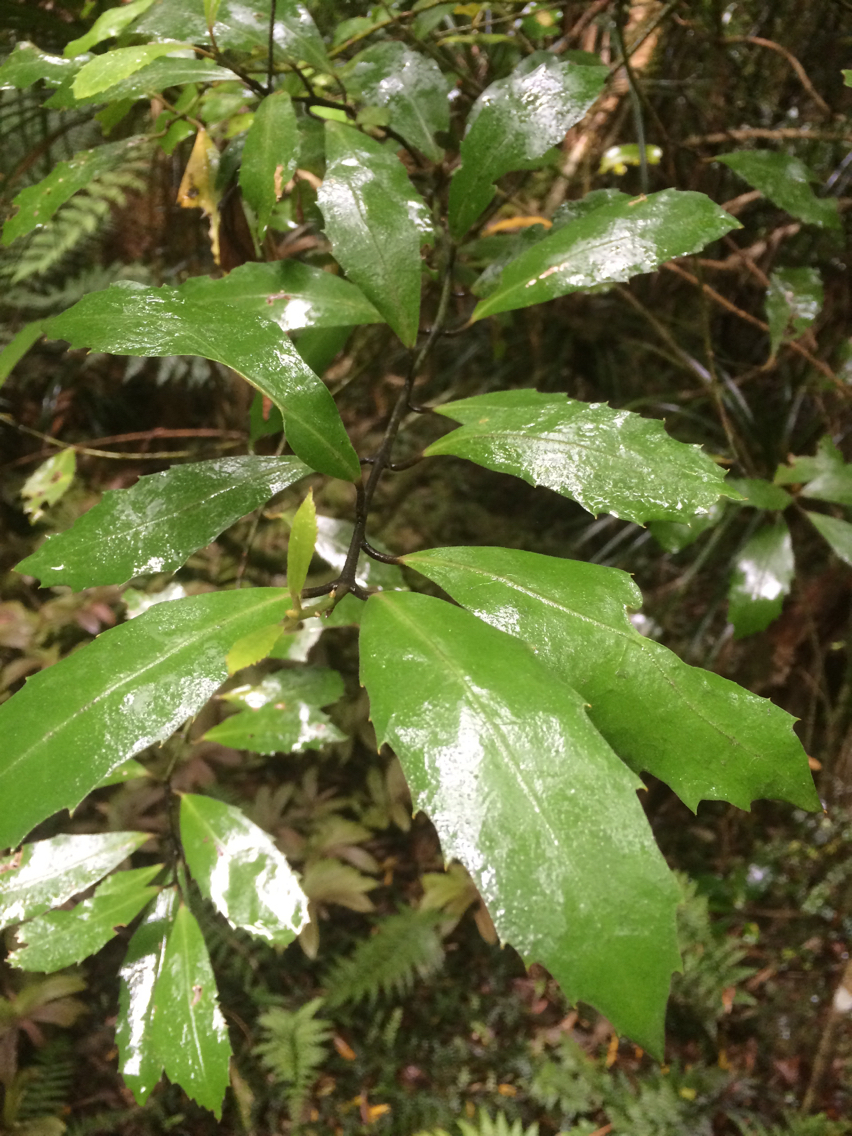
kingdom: Plantae
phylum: Tracheophyta
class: Magnoliopsida
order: Laurales
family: Monimiaceae
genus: Hedycarya
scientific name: Hedycarya arborea
